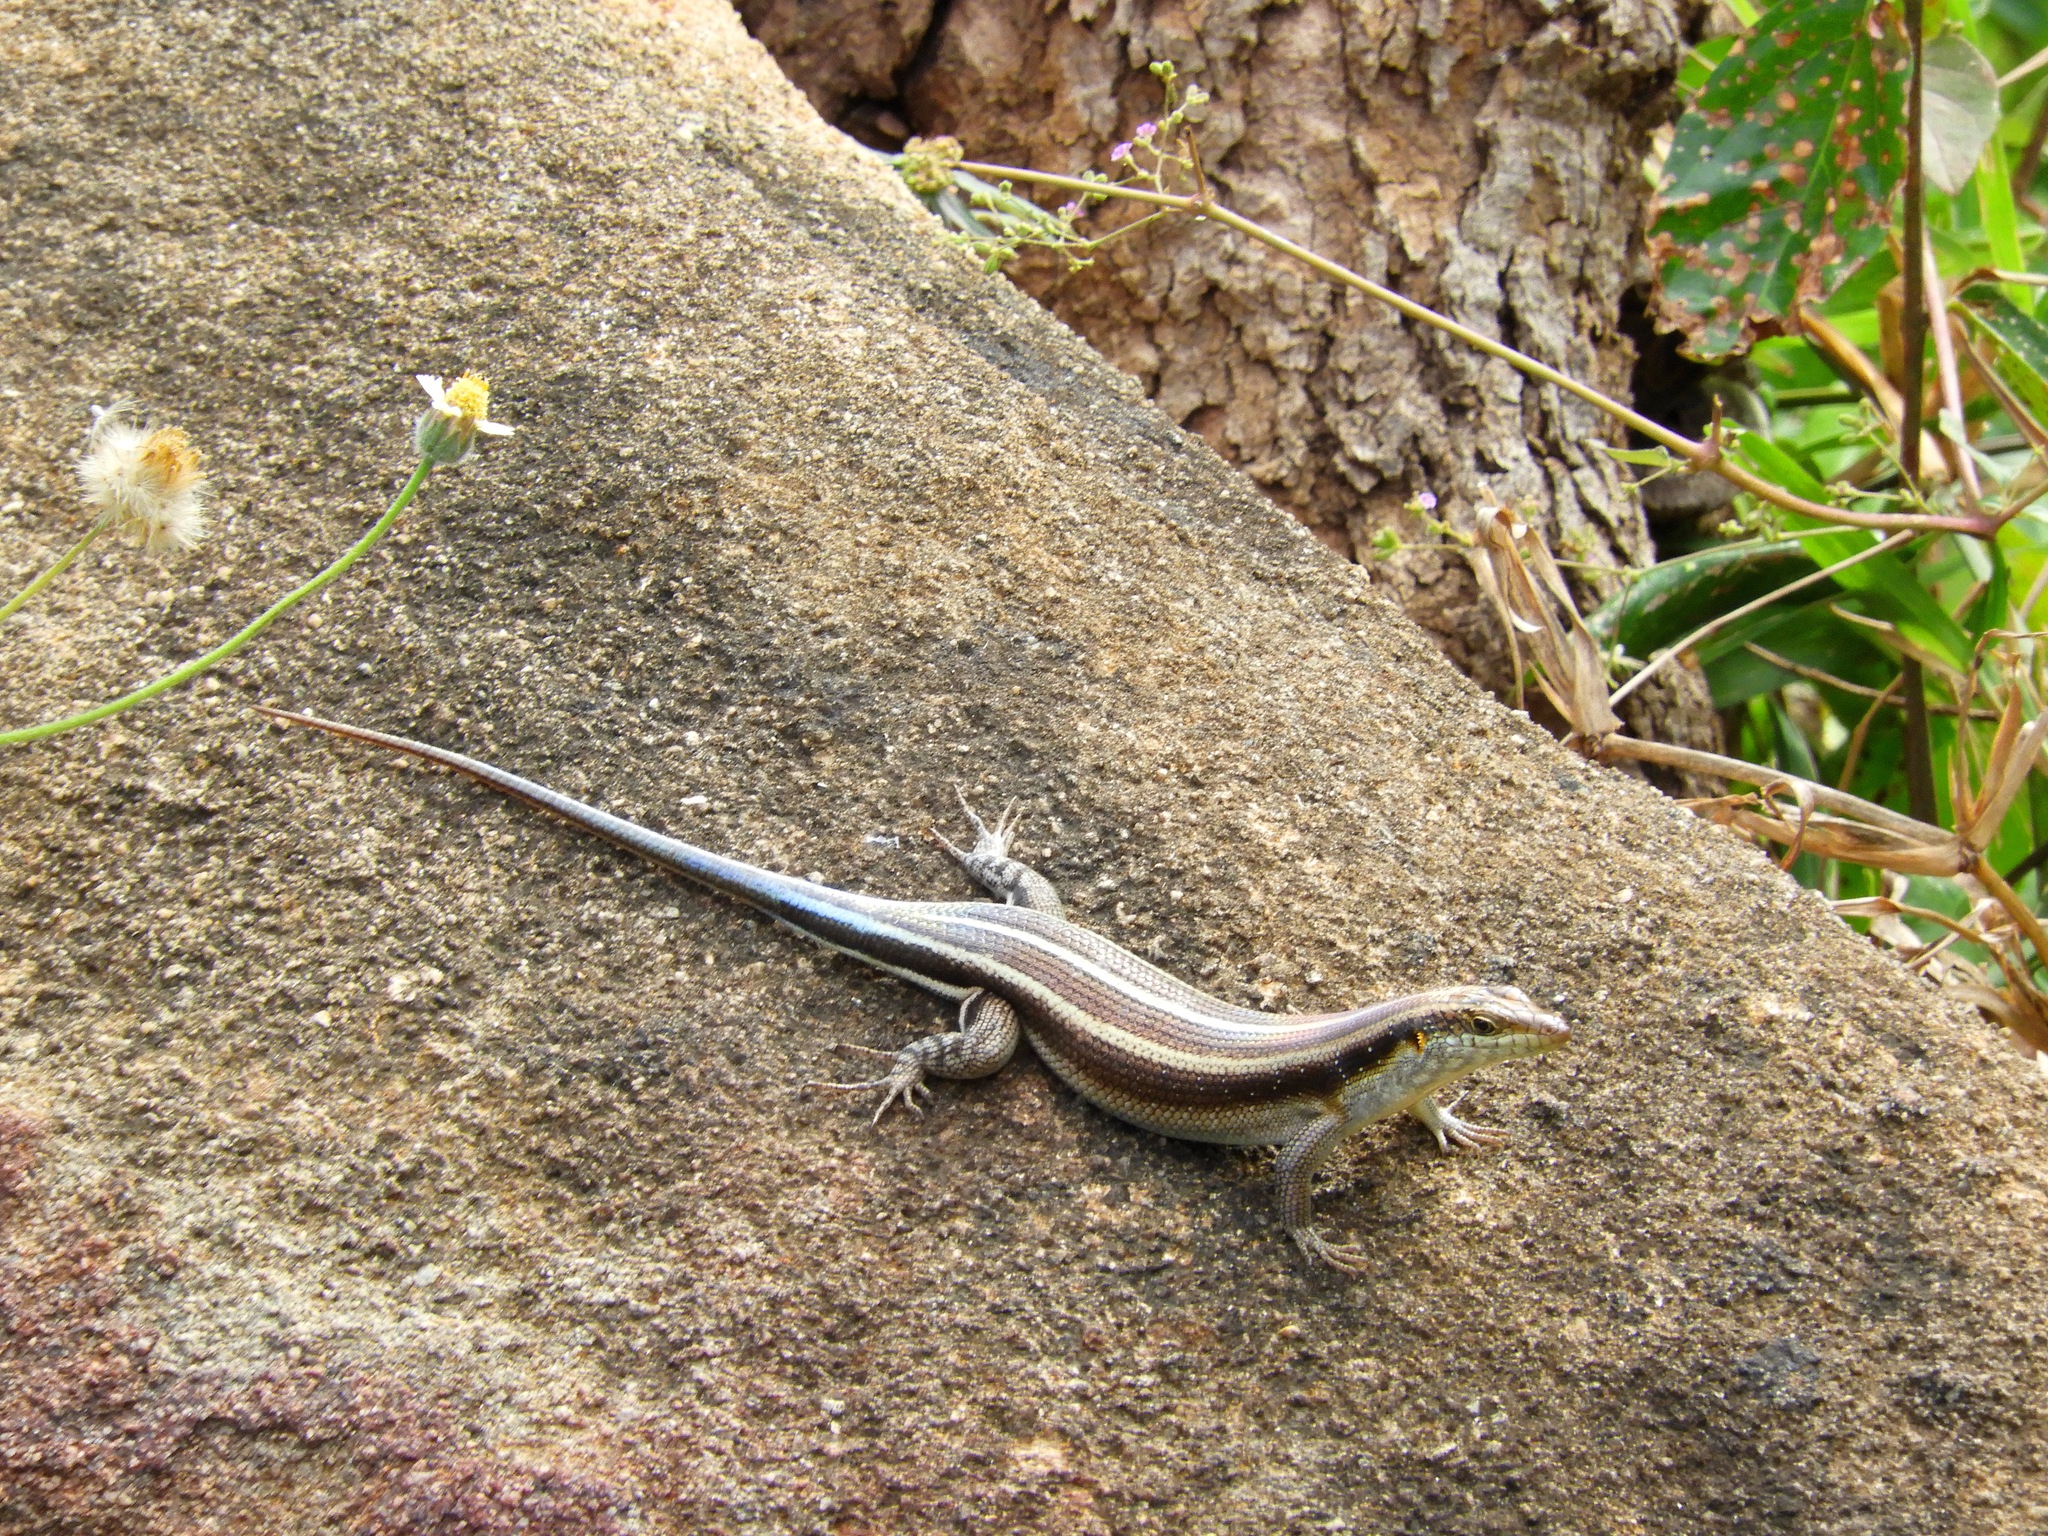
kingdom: Animalia
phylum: Chordata
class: Squamata
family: Scincidae
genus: Trachylepis
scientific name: Trachylepis margaritifera
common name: Rainbow skink
